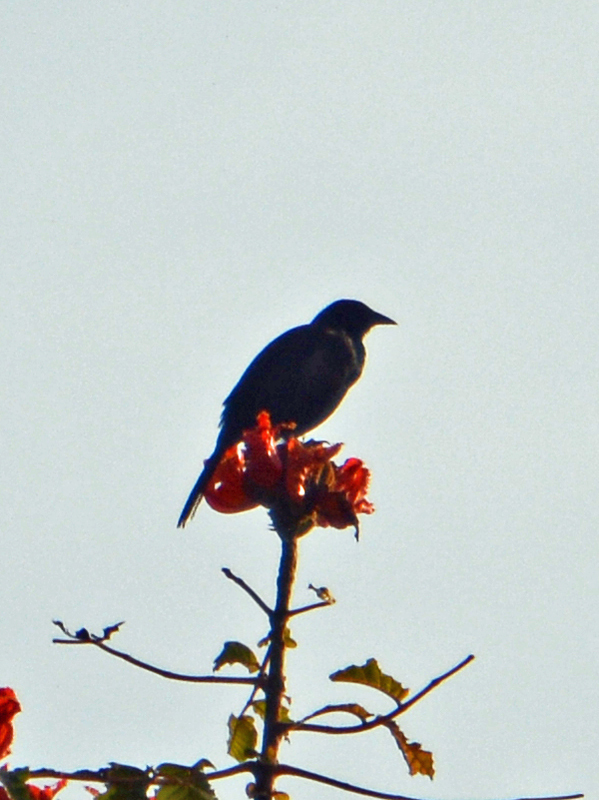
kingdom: Animalia
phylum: Chordata
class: Aves
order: Passeriformes
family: Icteridae
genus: Dives
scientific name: Dives dives
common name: Melodious blackbird
